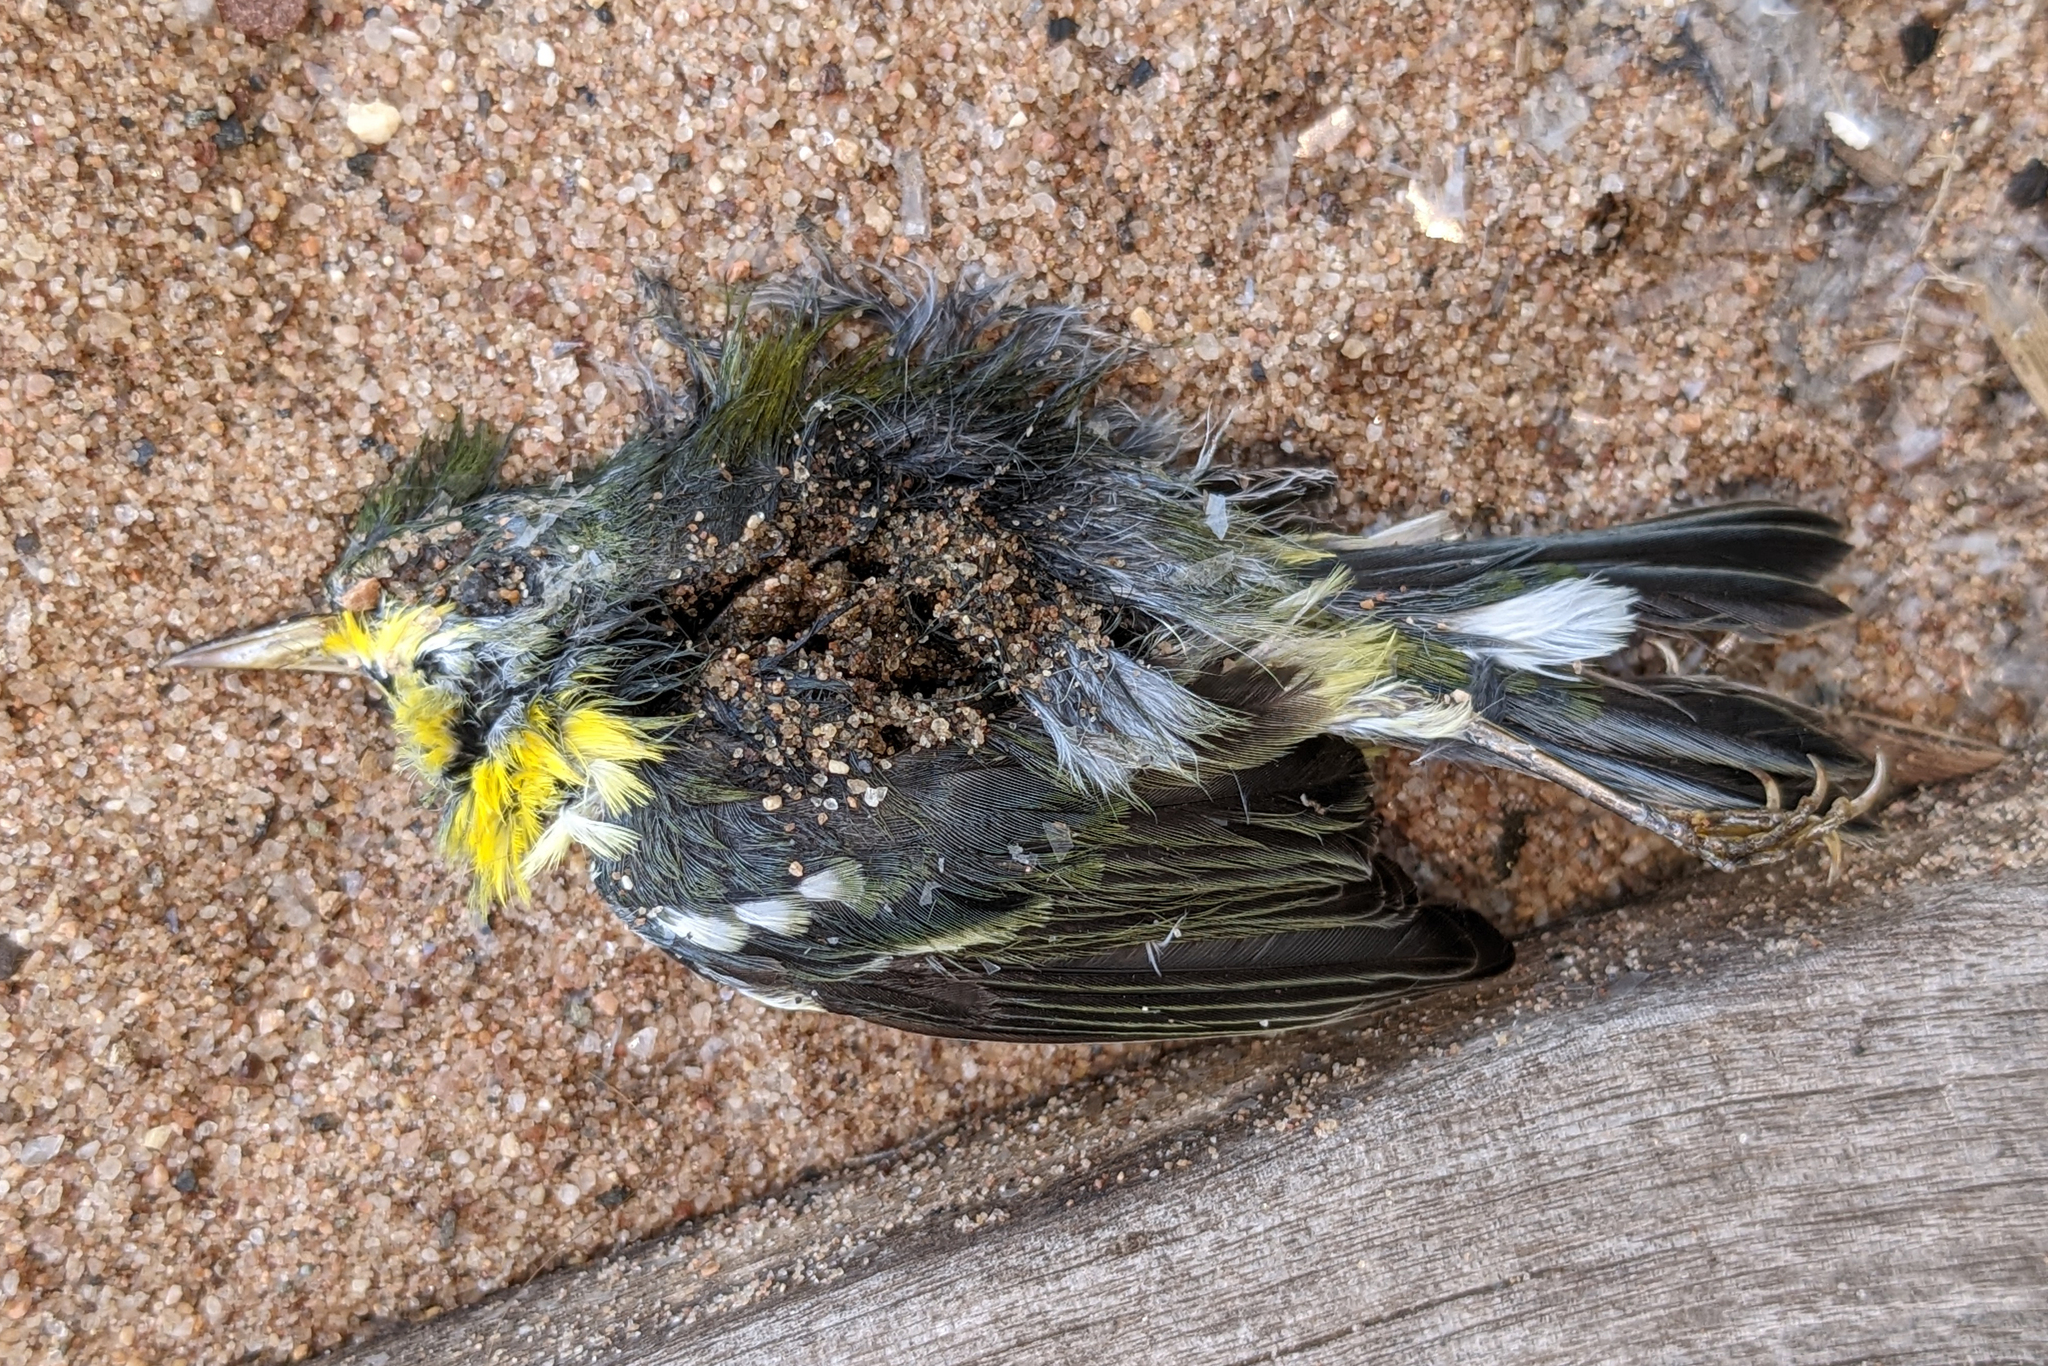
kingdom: Animalia
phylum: Chordata
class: Aves
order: Passeriformes
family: Parulidae
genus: Setophaga
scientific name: Setophaga americana
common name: Northern parula
